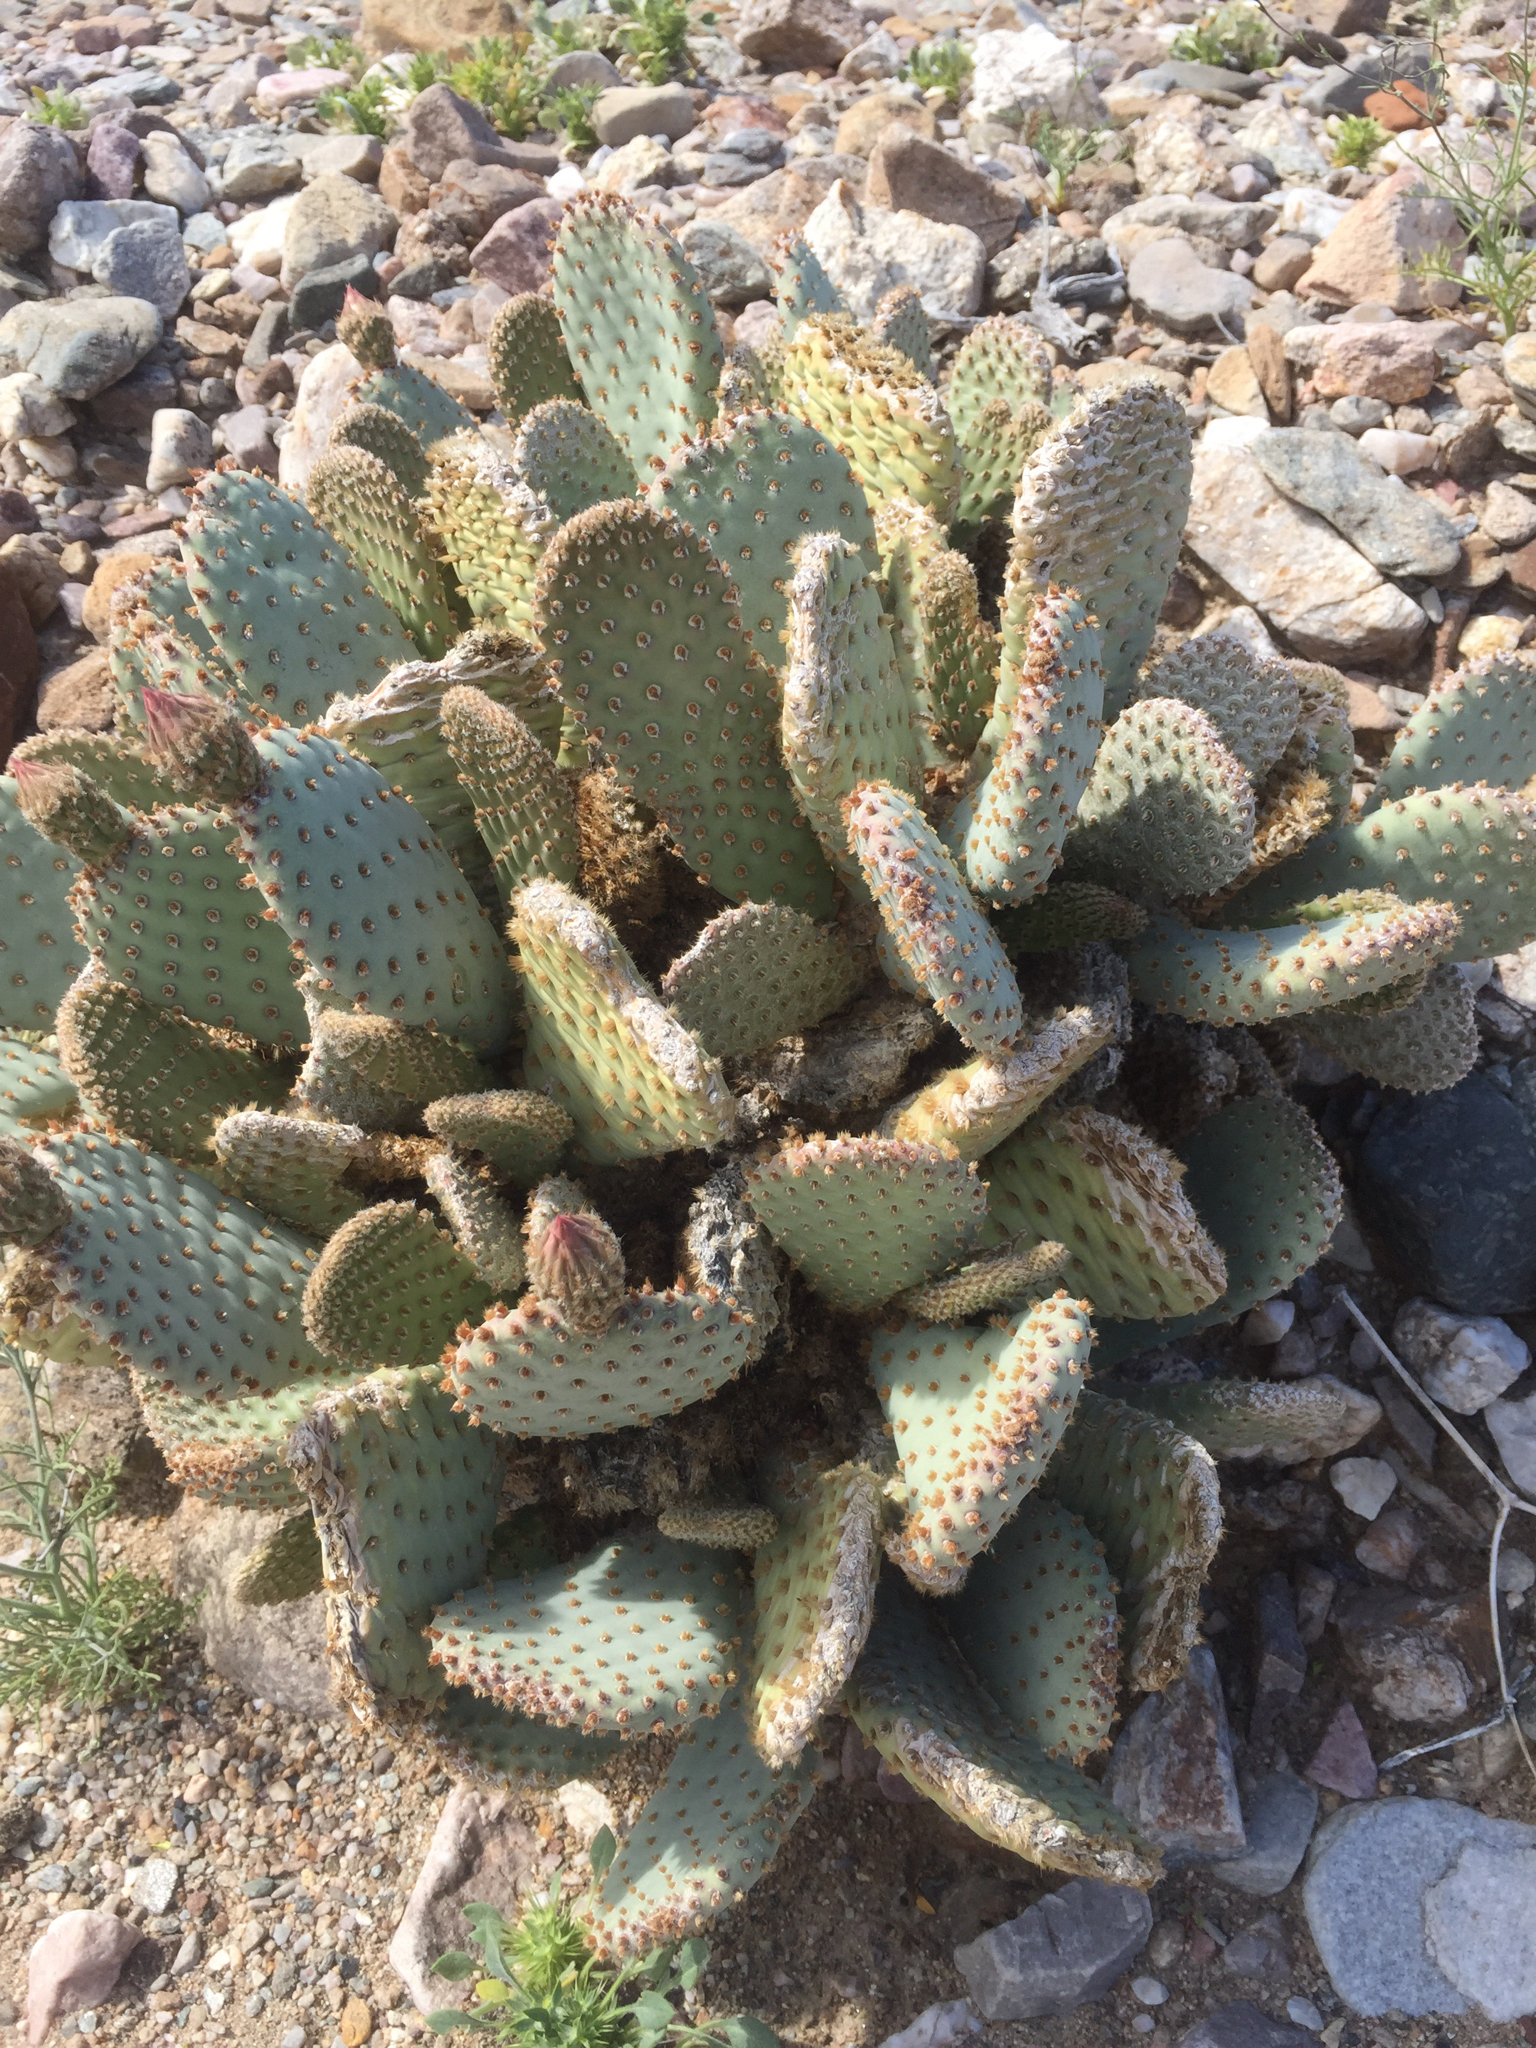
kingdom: Plantae
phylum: Tracheophyta
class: Magnoliopsida
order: Caryophyllales
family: Cactaceae
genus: Opuntia
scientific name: Opuntia basilaris
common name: Beavertail prickly-pear
